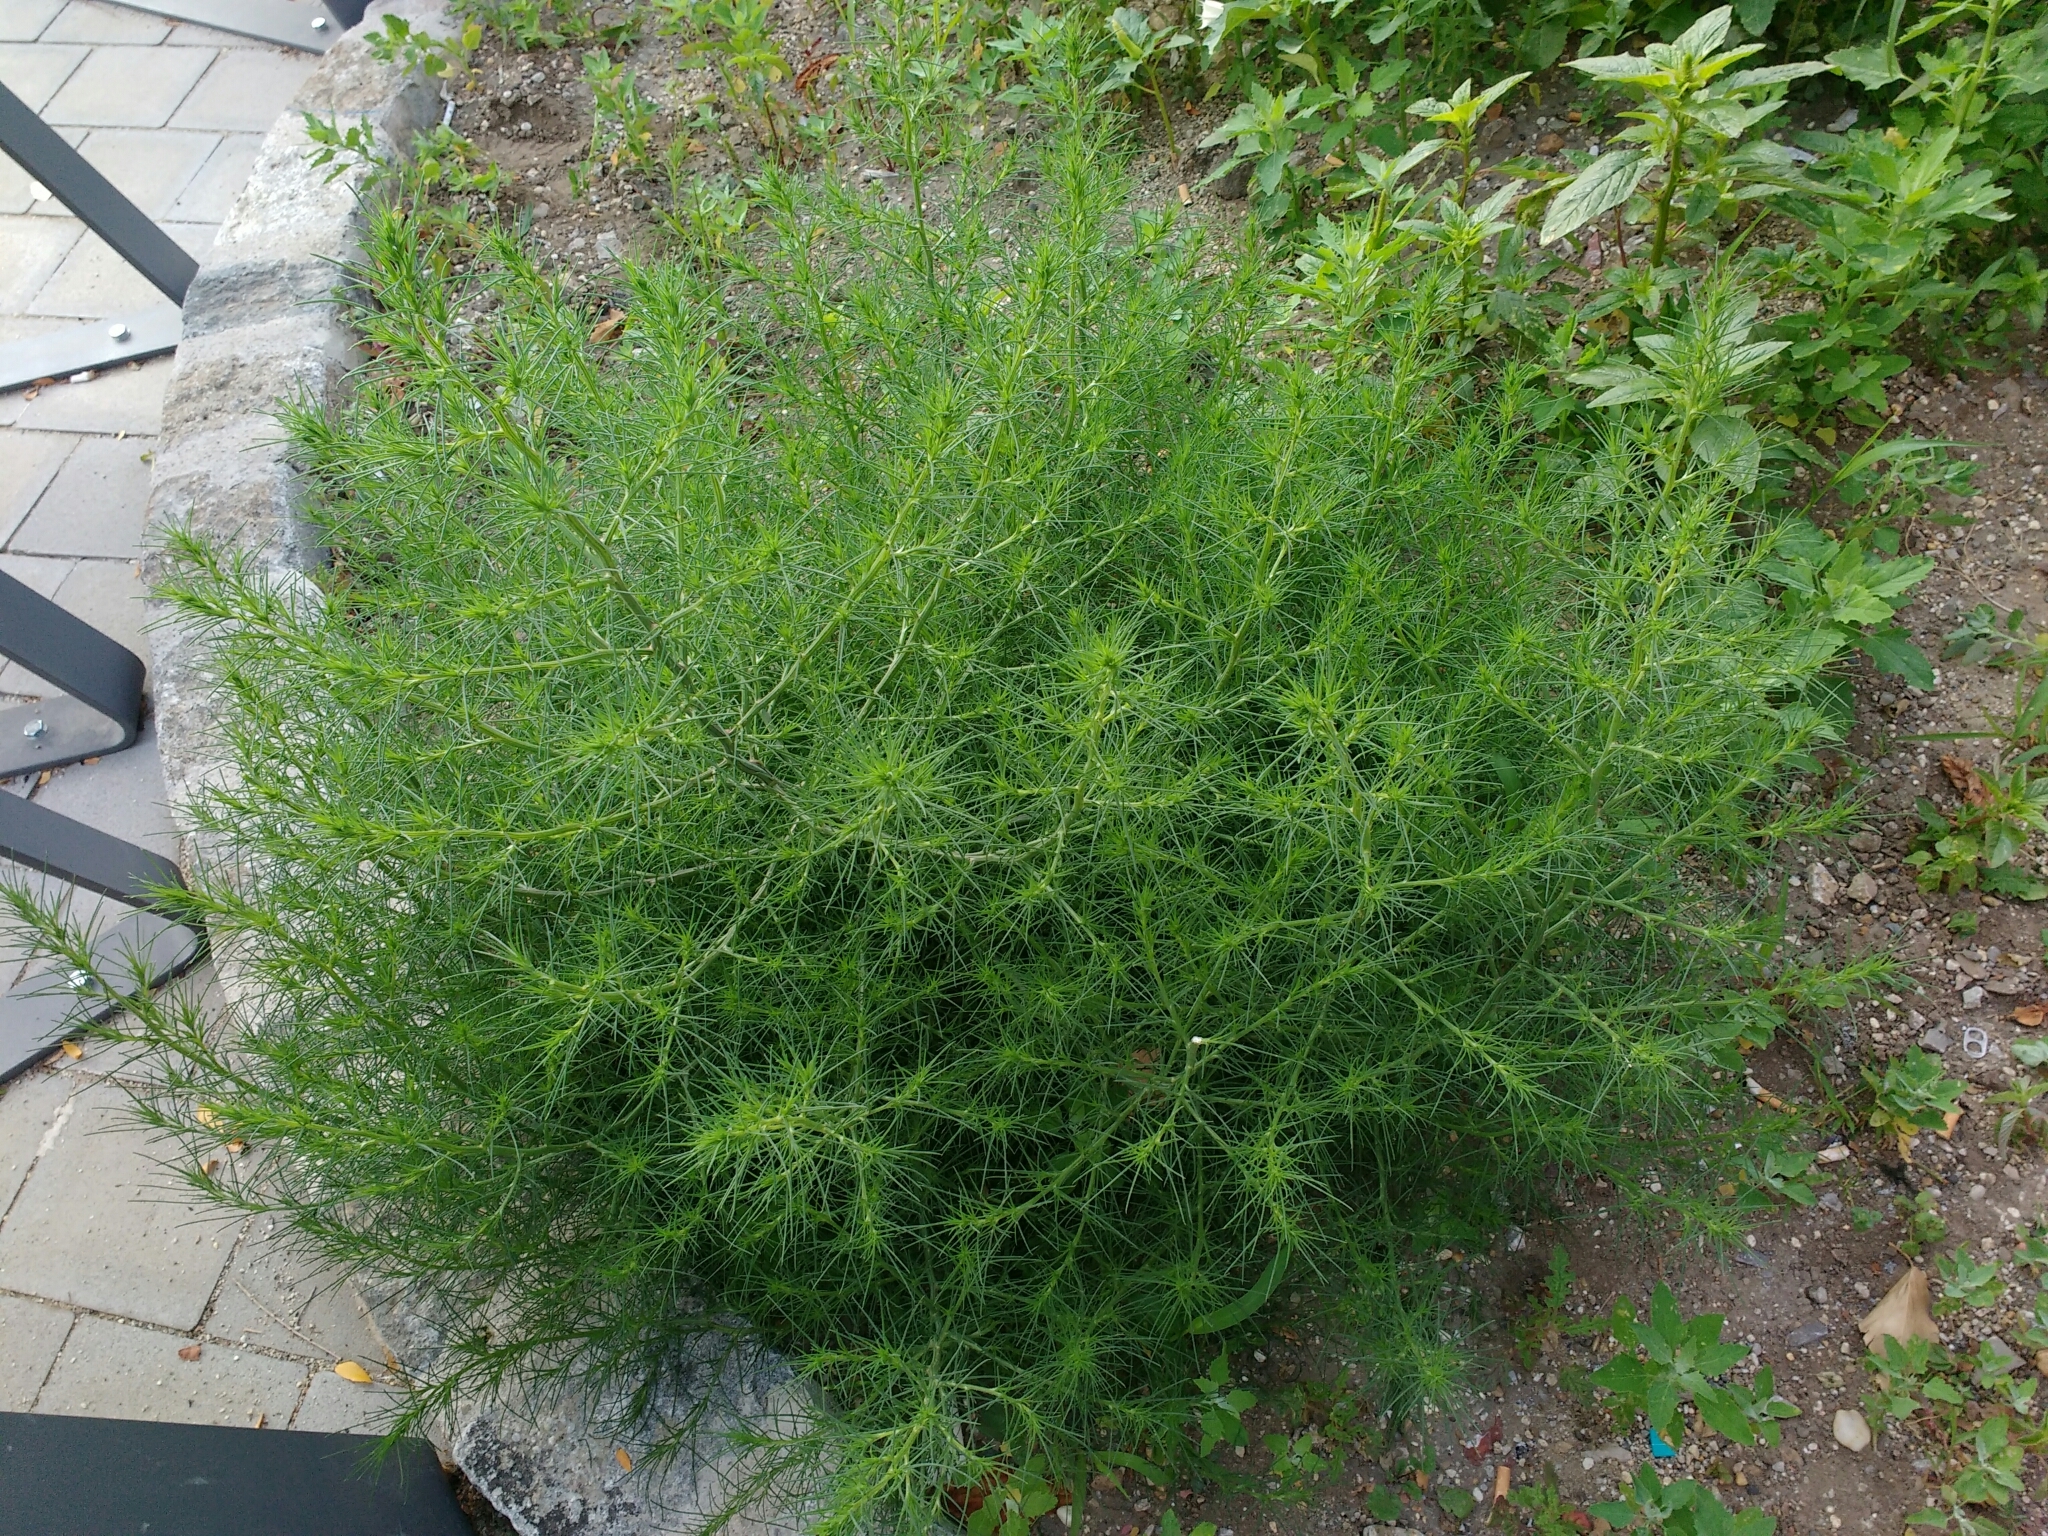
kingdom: Plantae
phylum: Tracheophyta
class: Magnoliopsida
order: Caryophyllales
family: Amaranthaceae
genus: Salsola
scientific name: Salsola tragus
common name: Prickly russian thistle
